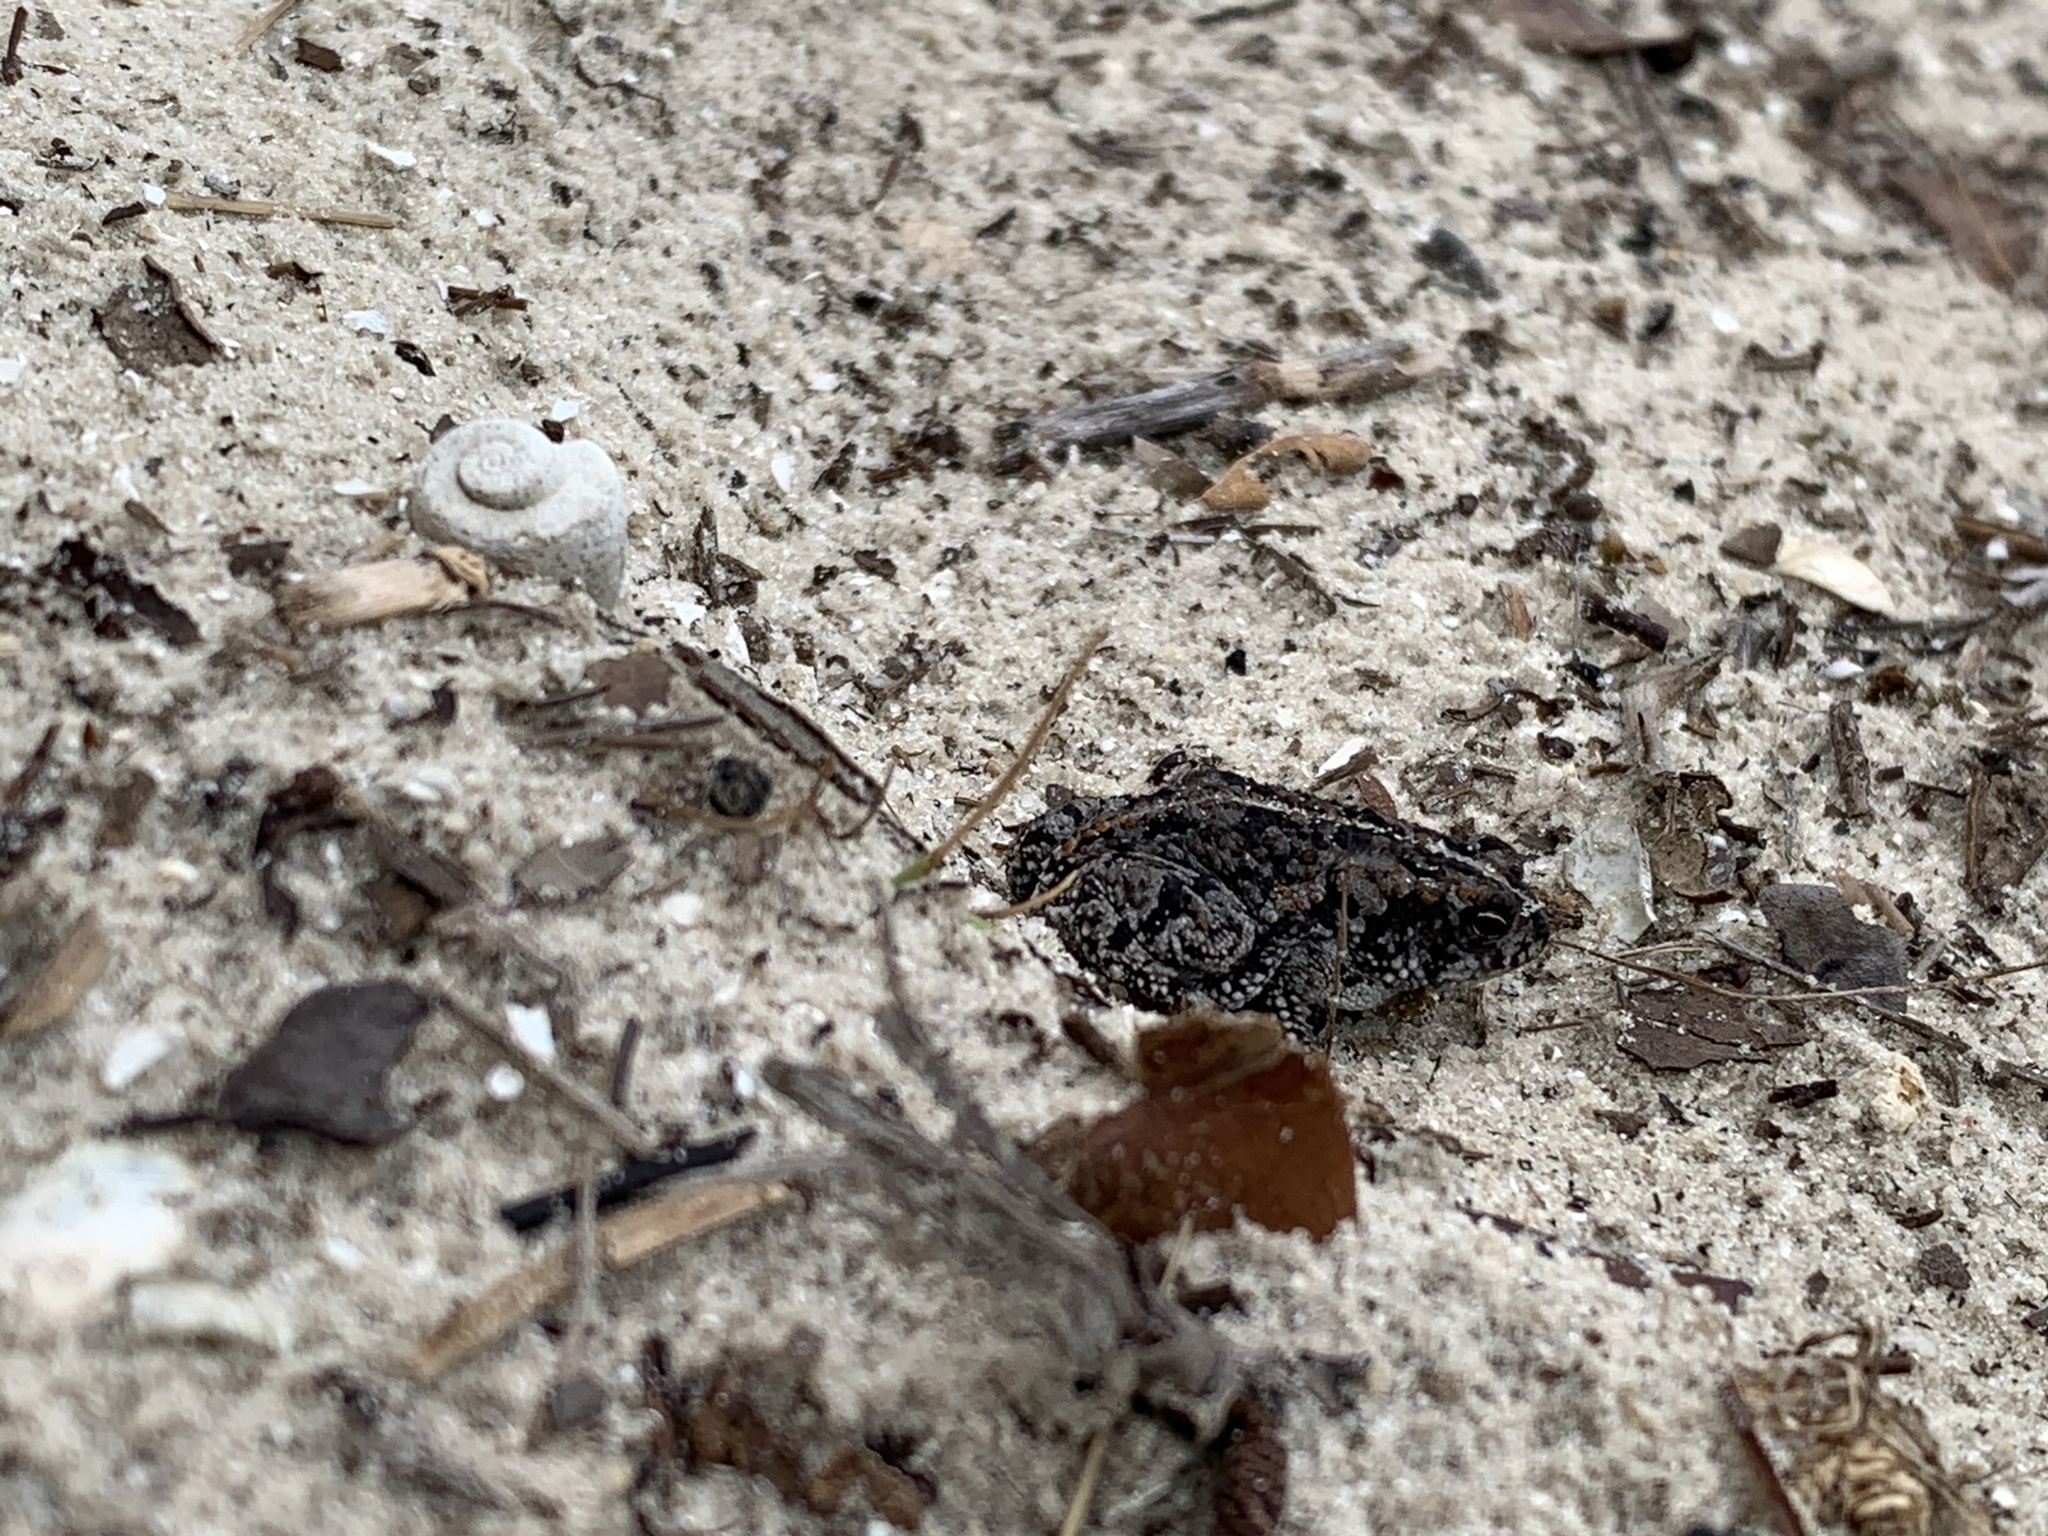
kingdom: Animalia
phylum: Chordata
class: Amphibia
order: Anura
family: Bufonidae
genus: Anaxyrus
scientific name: Anaxyrus quercicus
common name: Oak toad
